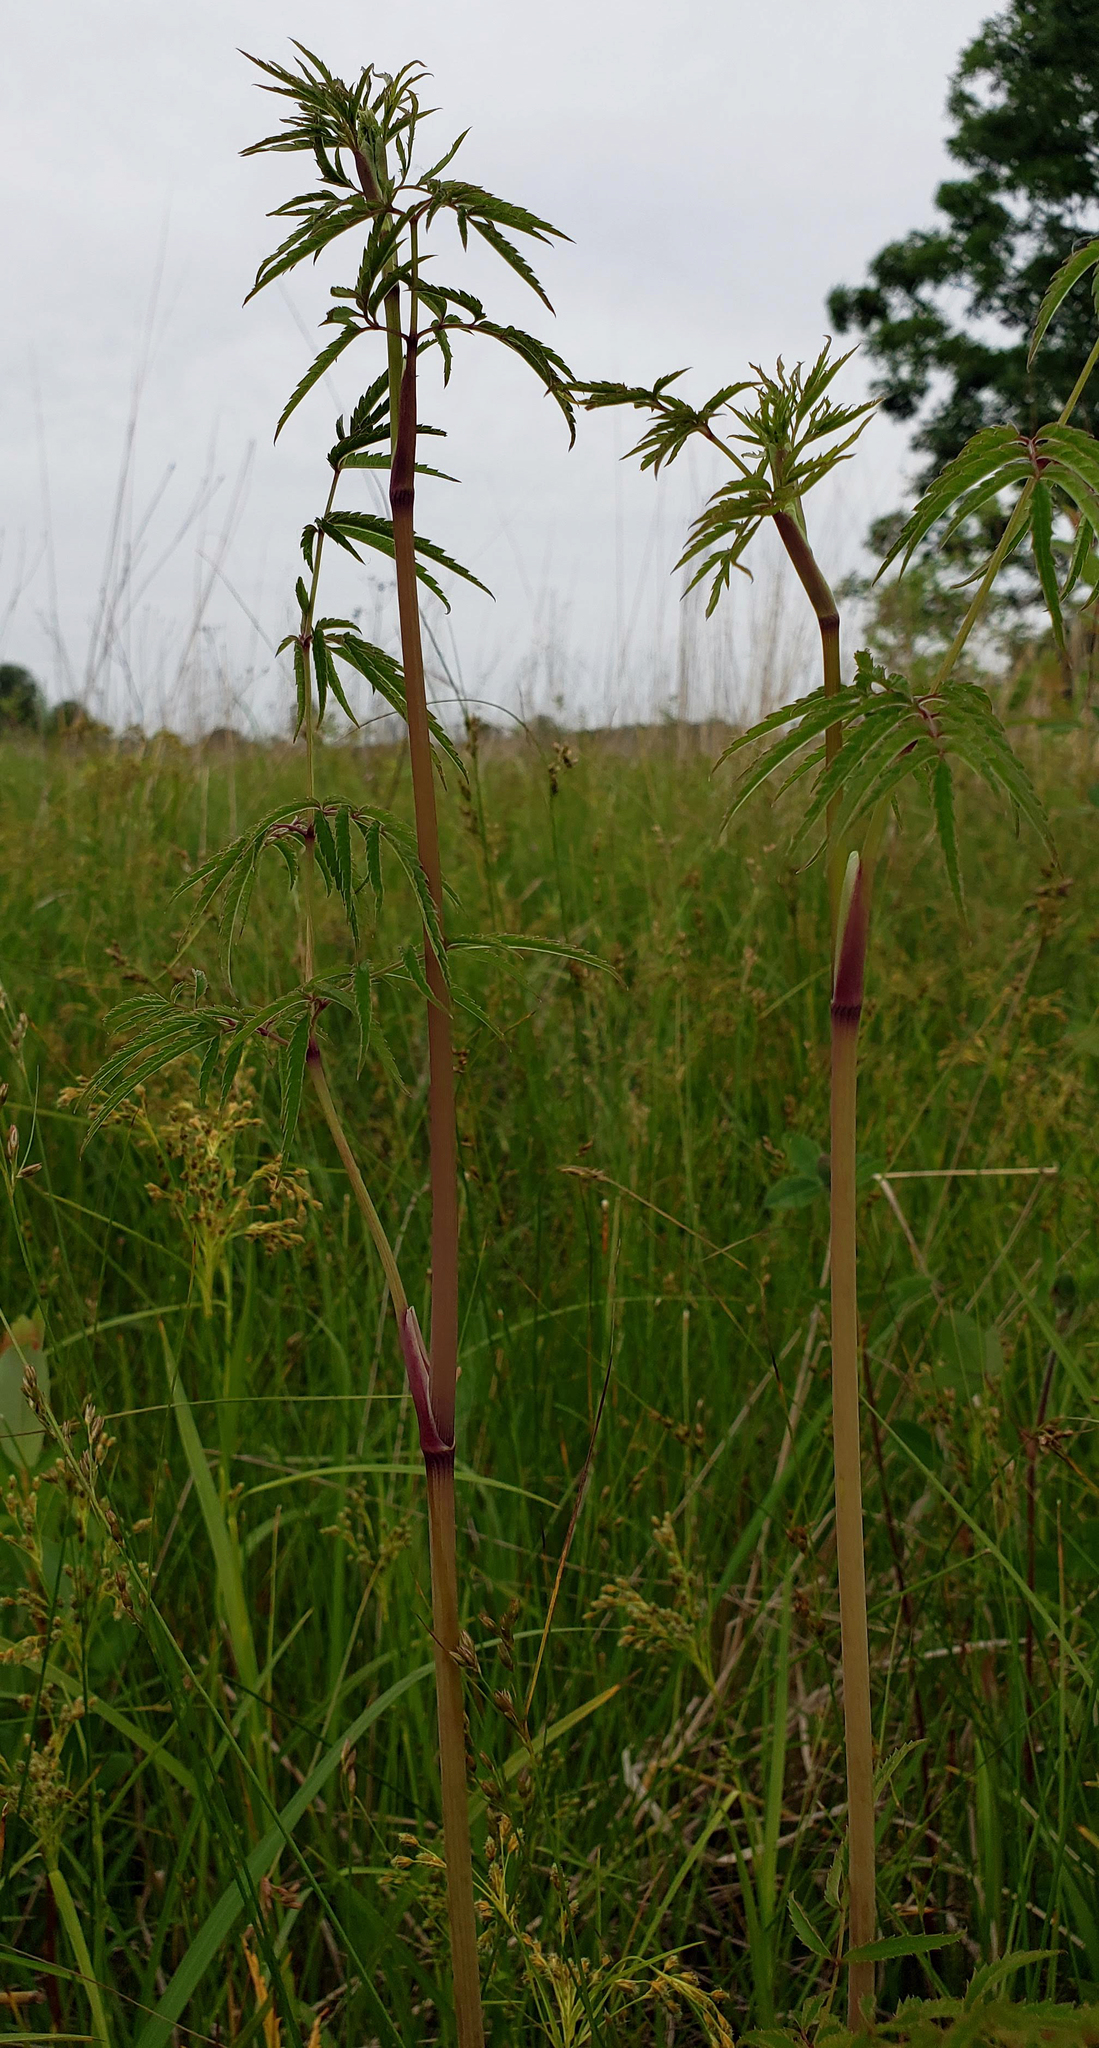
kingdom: Plantae
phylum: Tracheophyta
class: Magnoliopsida
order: Apiales
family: Apiaceae
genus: Cicuta
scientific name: Cicuta maculata
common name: Spotted cowbane
